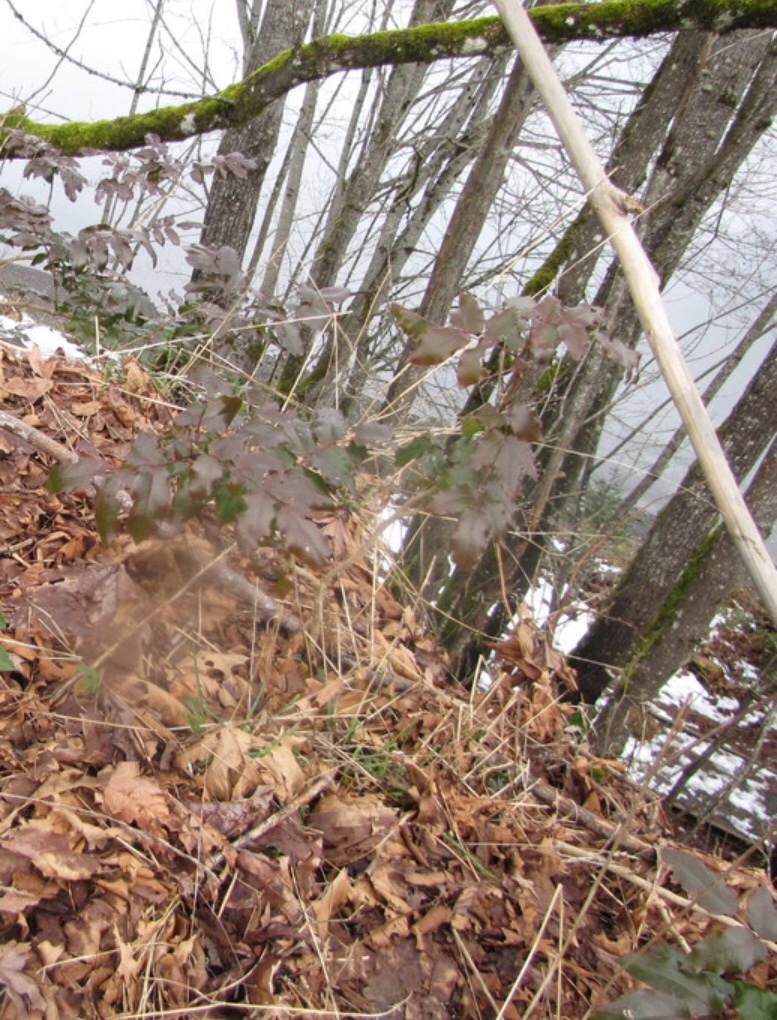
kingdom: Plantae
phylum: Tracheophyta
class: Magnoliopsida
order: Ranunculales
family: Berberidaceae
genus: Mahonia
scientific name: Mahonia aquifolium
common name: Oregon-grape
